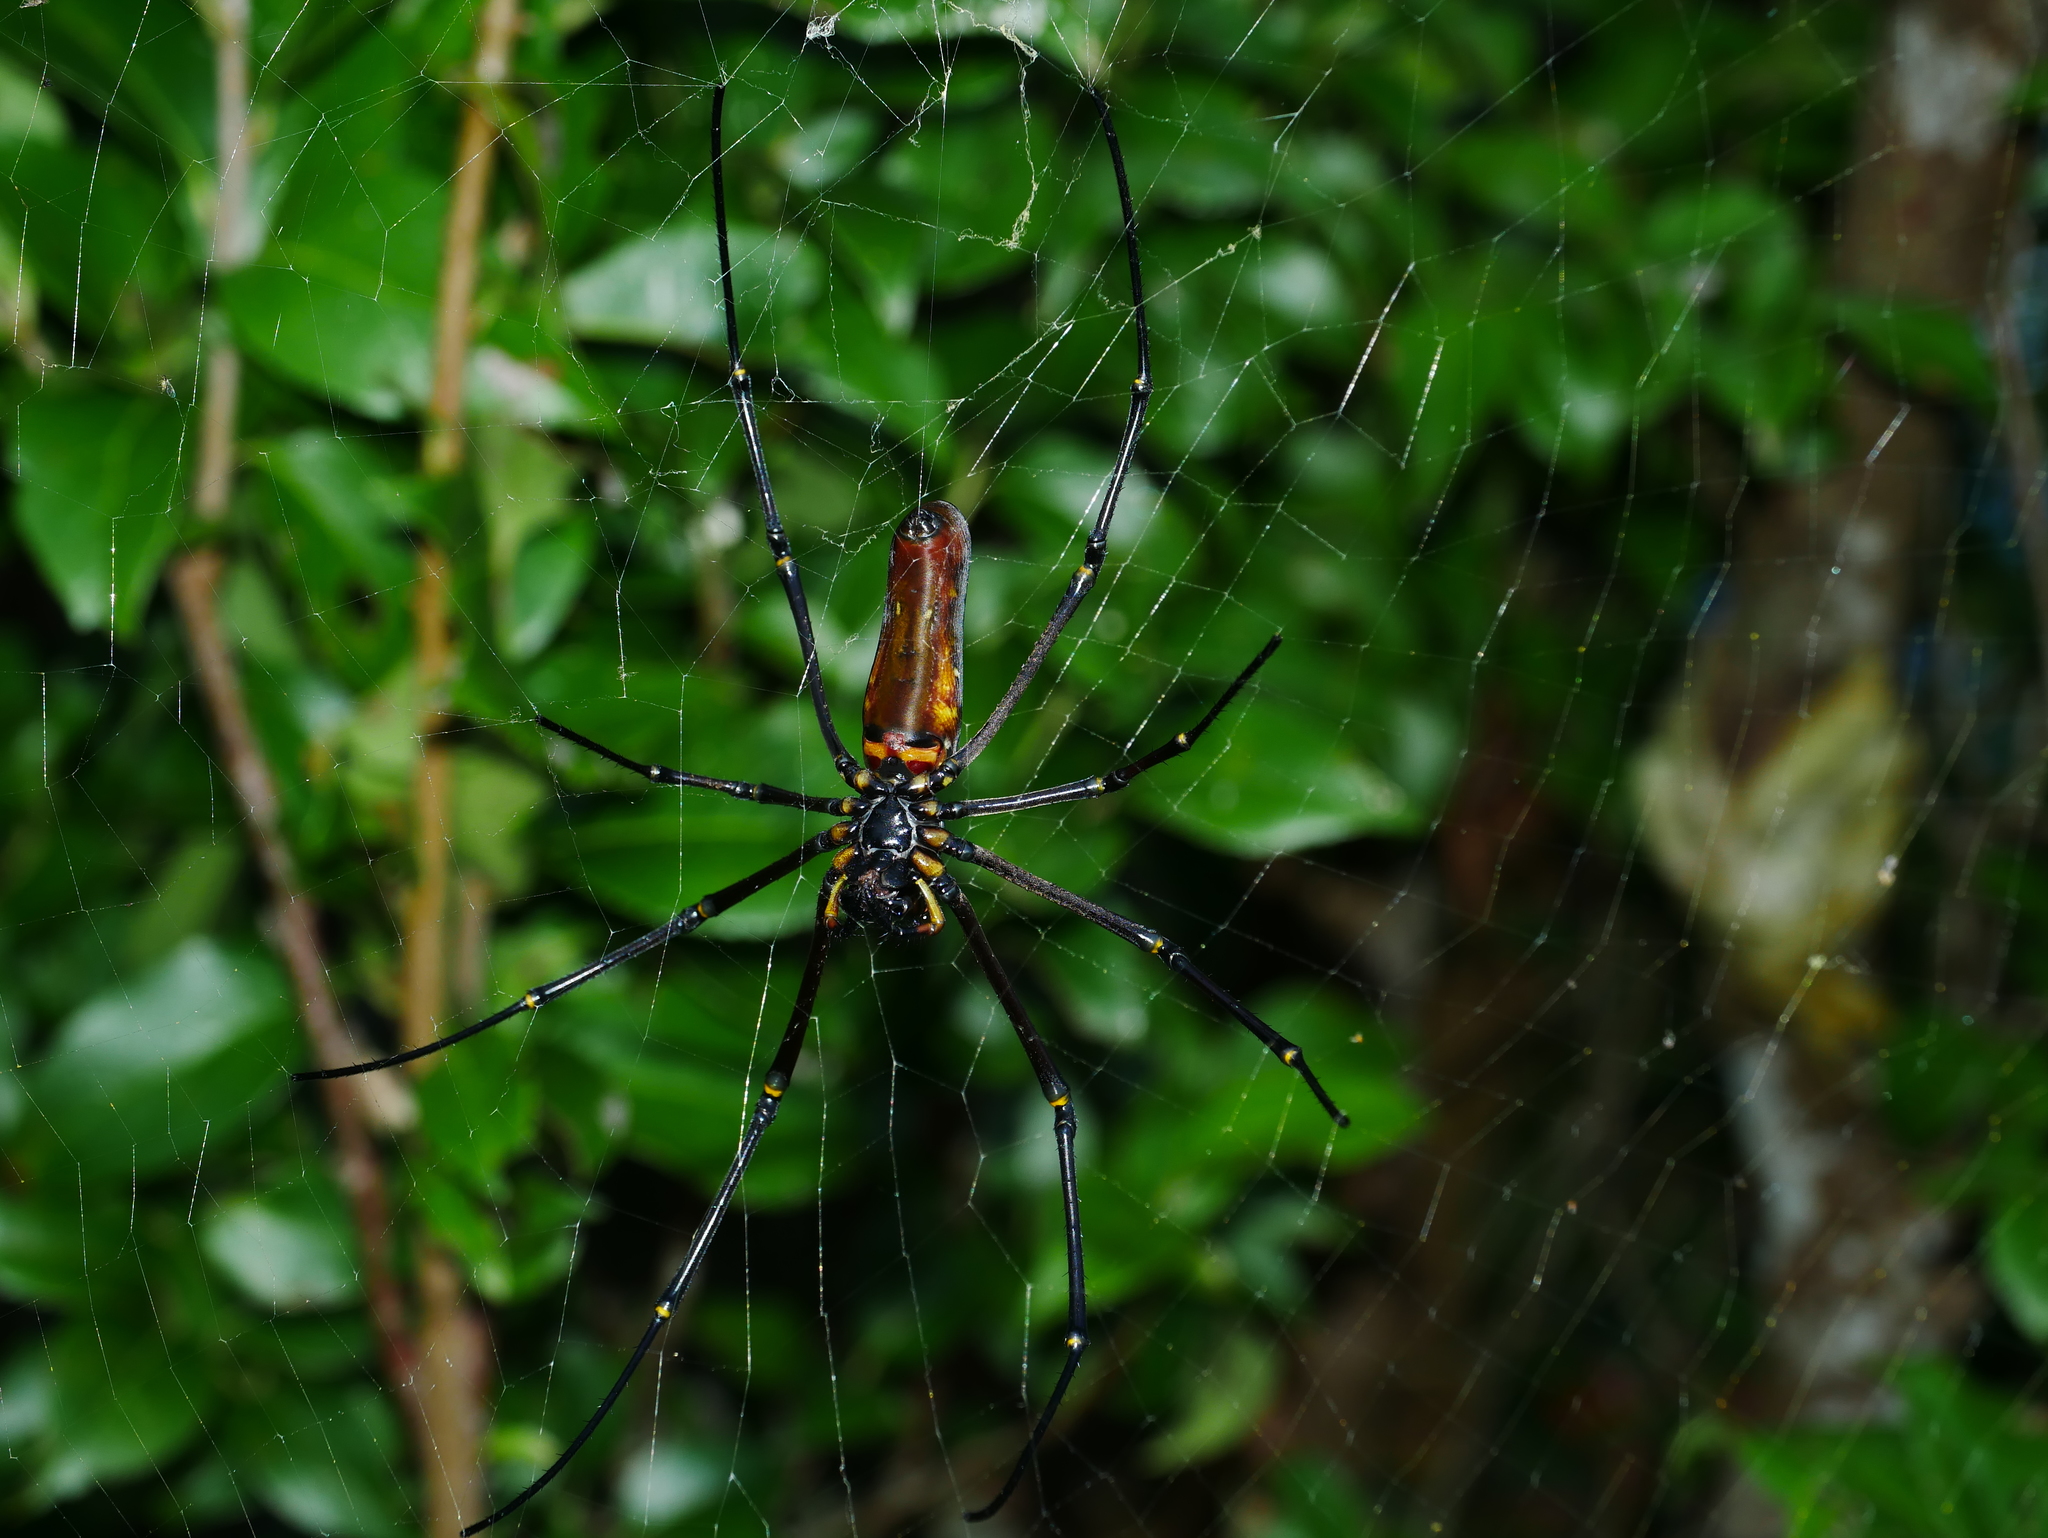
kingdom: Animalia
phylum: Arthropoda
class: Arachnida
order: Araneae
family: Araneidae
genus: Nephila
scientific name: Nephila pilipes
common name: Giant golden orb weaver
